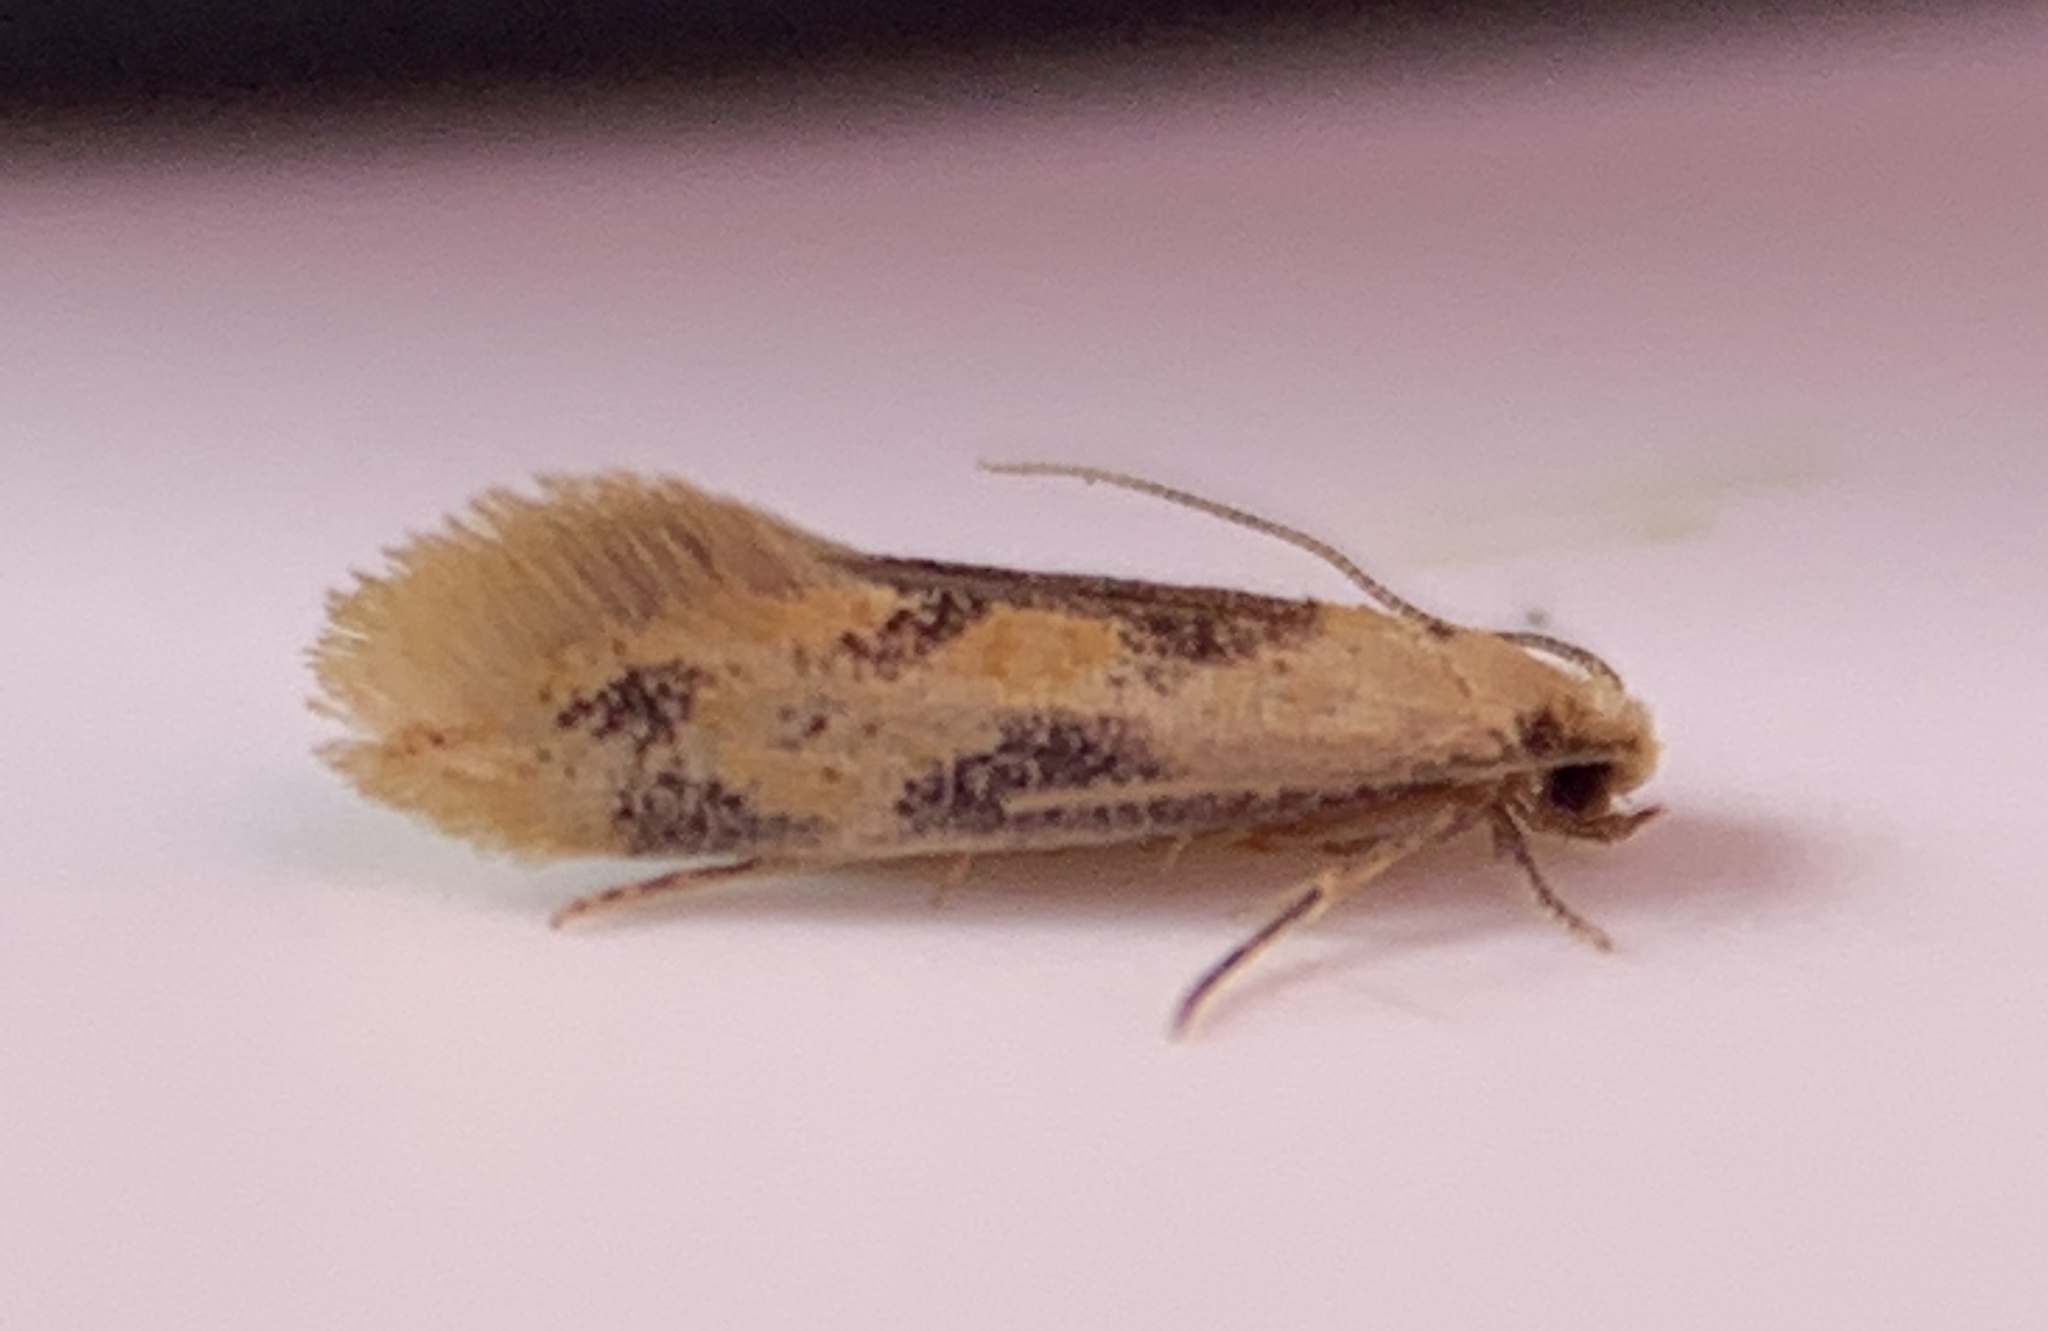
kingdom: Animalia
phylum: Arthropoda
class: Insecta
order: Lepidoptera
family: Meessiidae
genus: Hybroma
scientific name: Hybroma servulella
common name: Yellow wave moth
